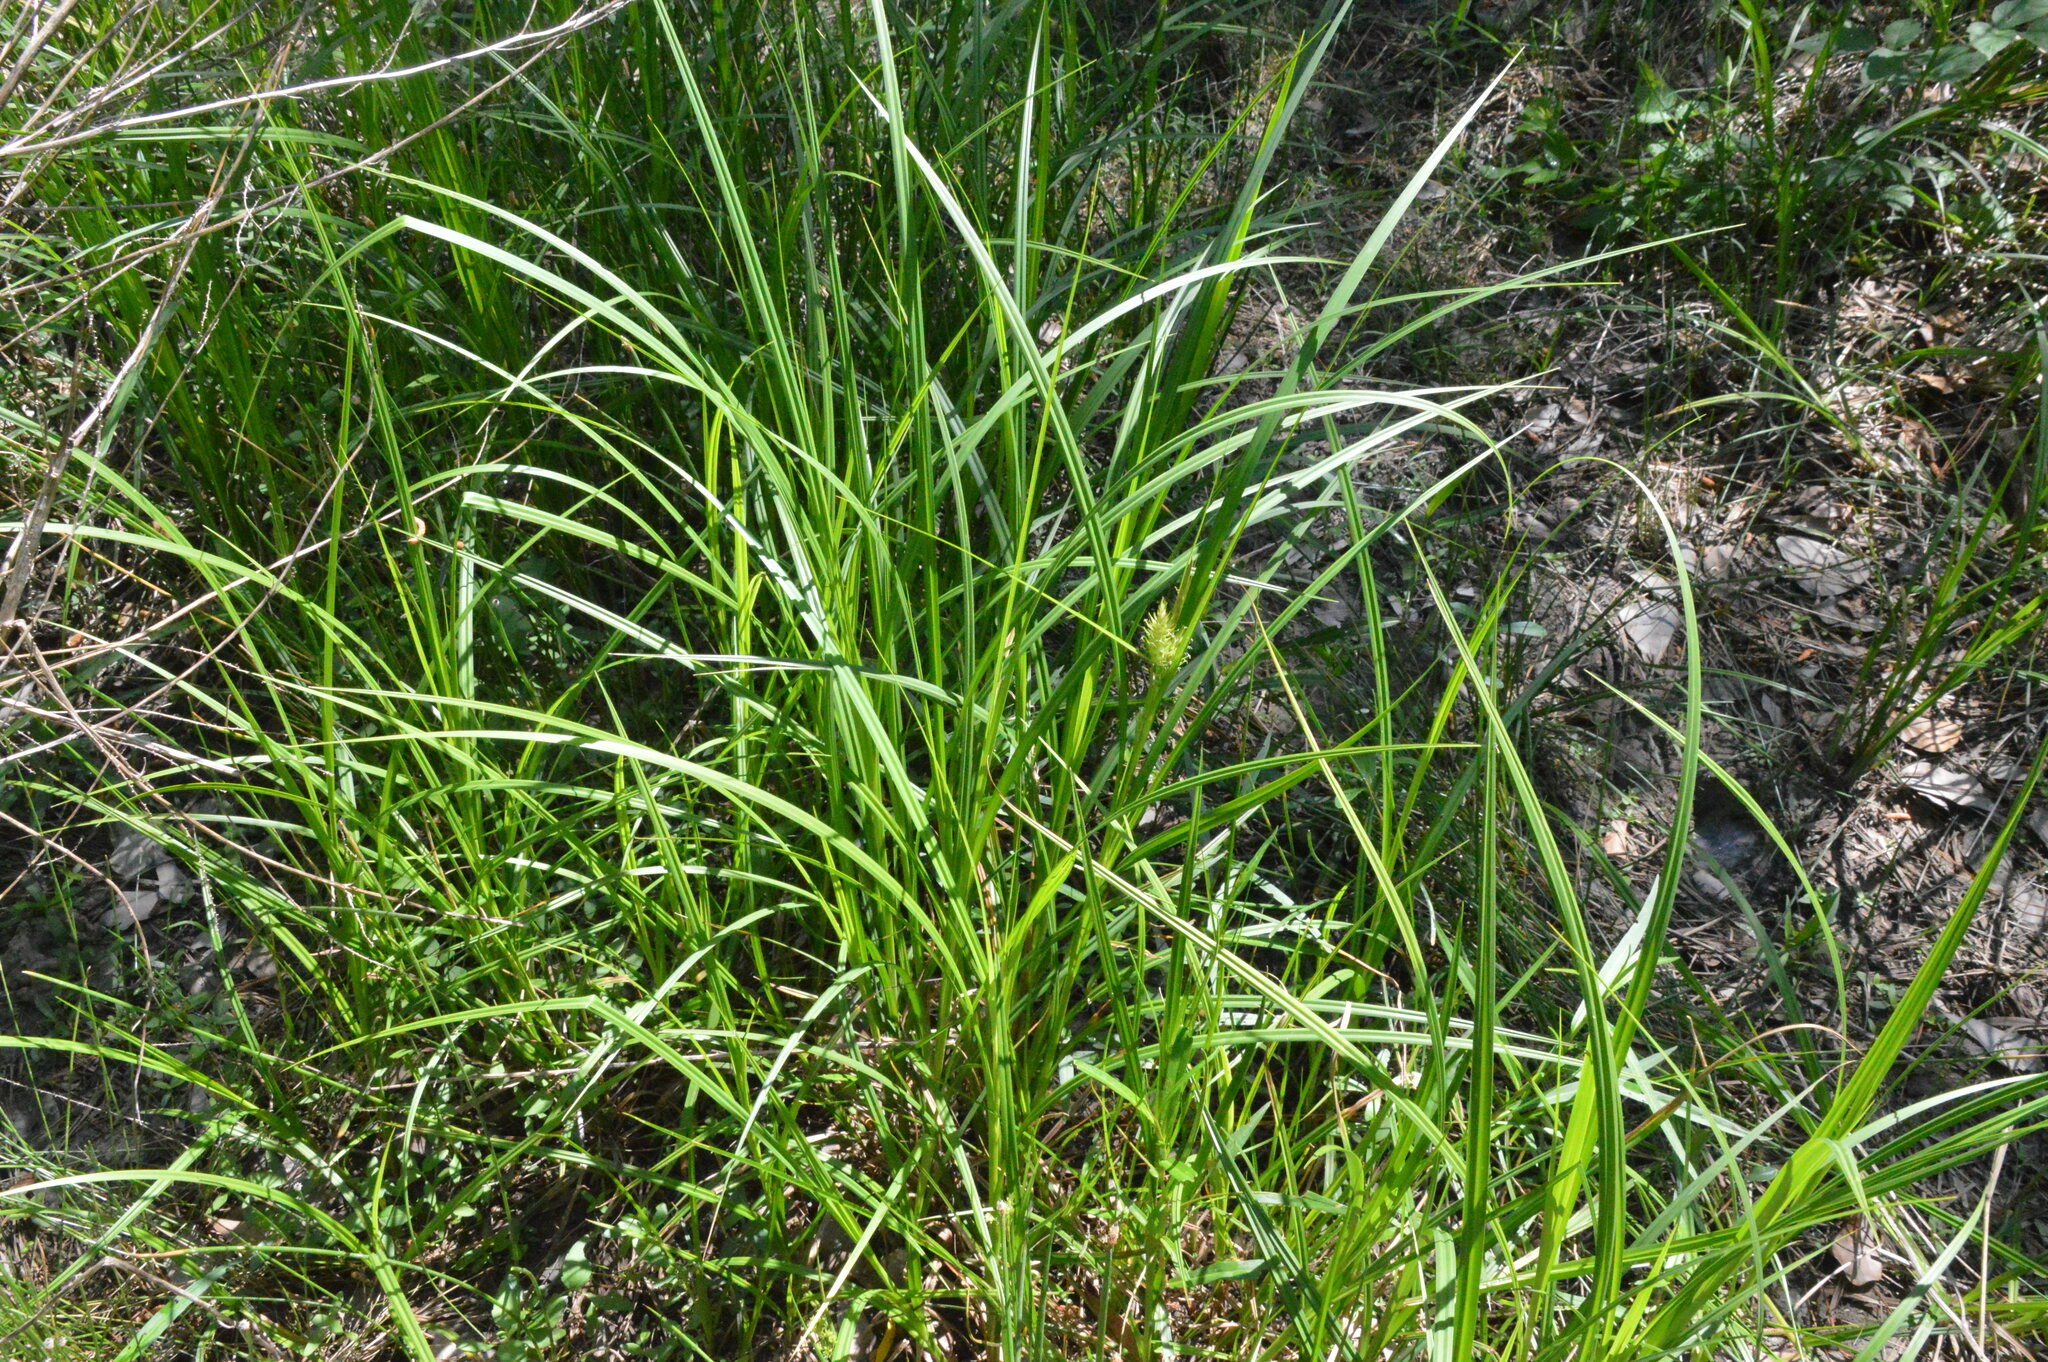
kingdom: Plantae
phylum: Tracheophyta
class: Liliopsida
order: Poales
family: Cyperaceae
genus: Carex
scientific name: Carex lupulina
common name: Hop sedge
